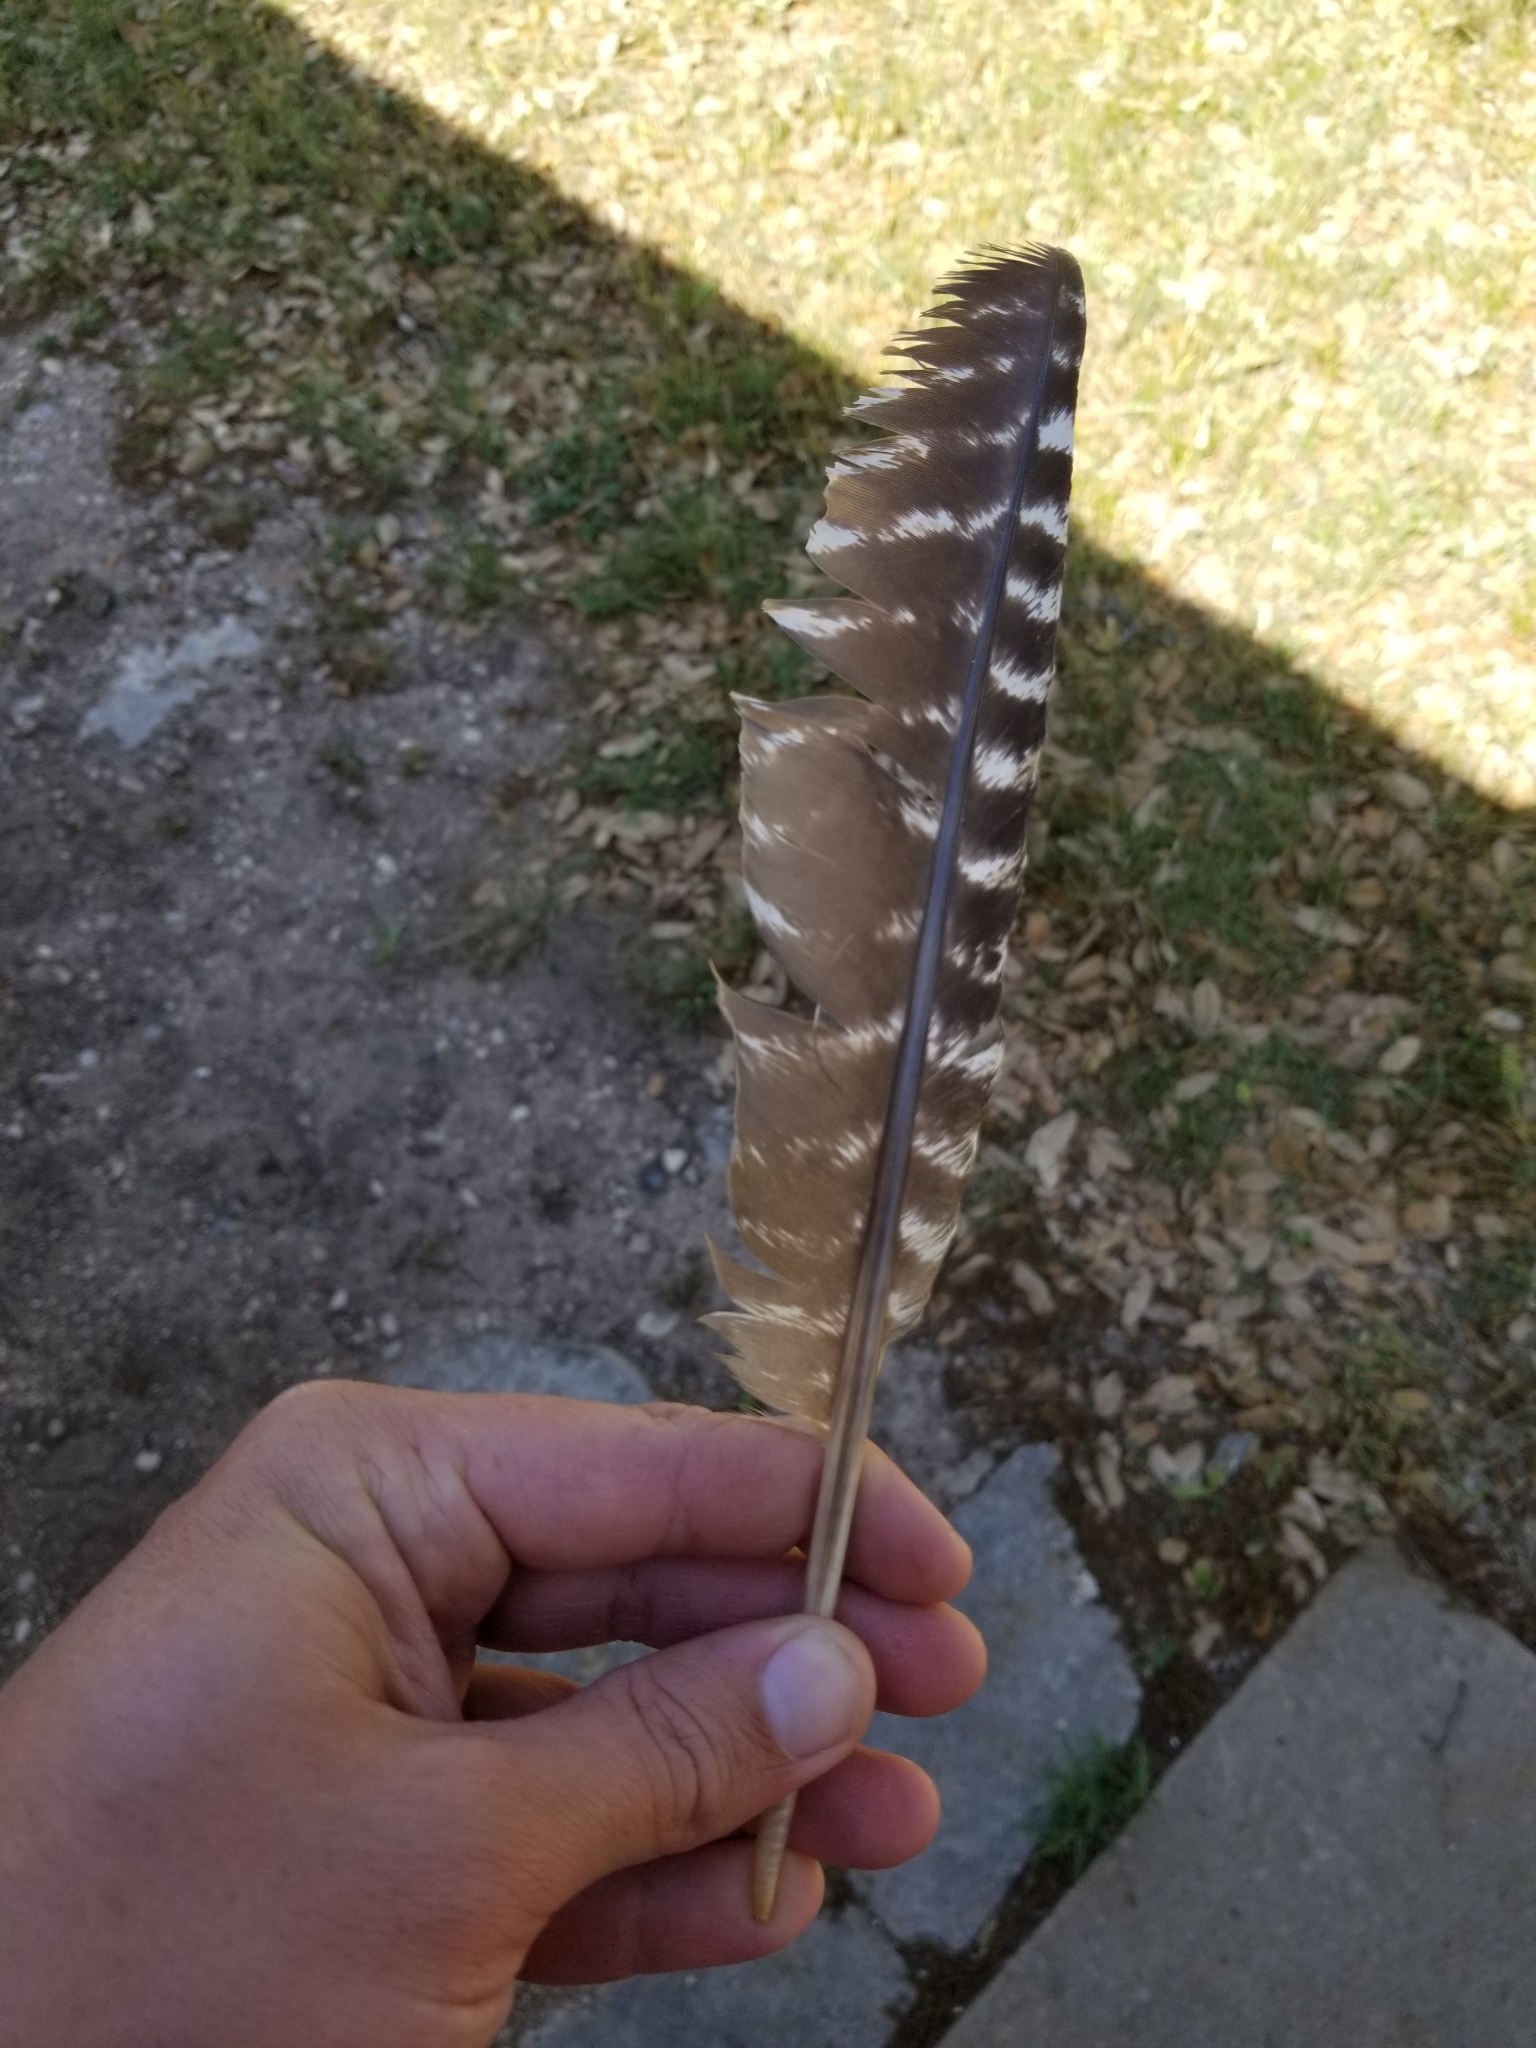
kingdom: Animalia
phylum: Chordata
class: Aves
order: Galliformes
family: Phasianidae
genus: Meleagris
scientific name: Meleagris gallopavo
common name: Wild turkey
